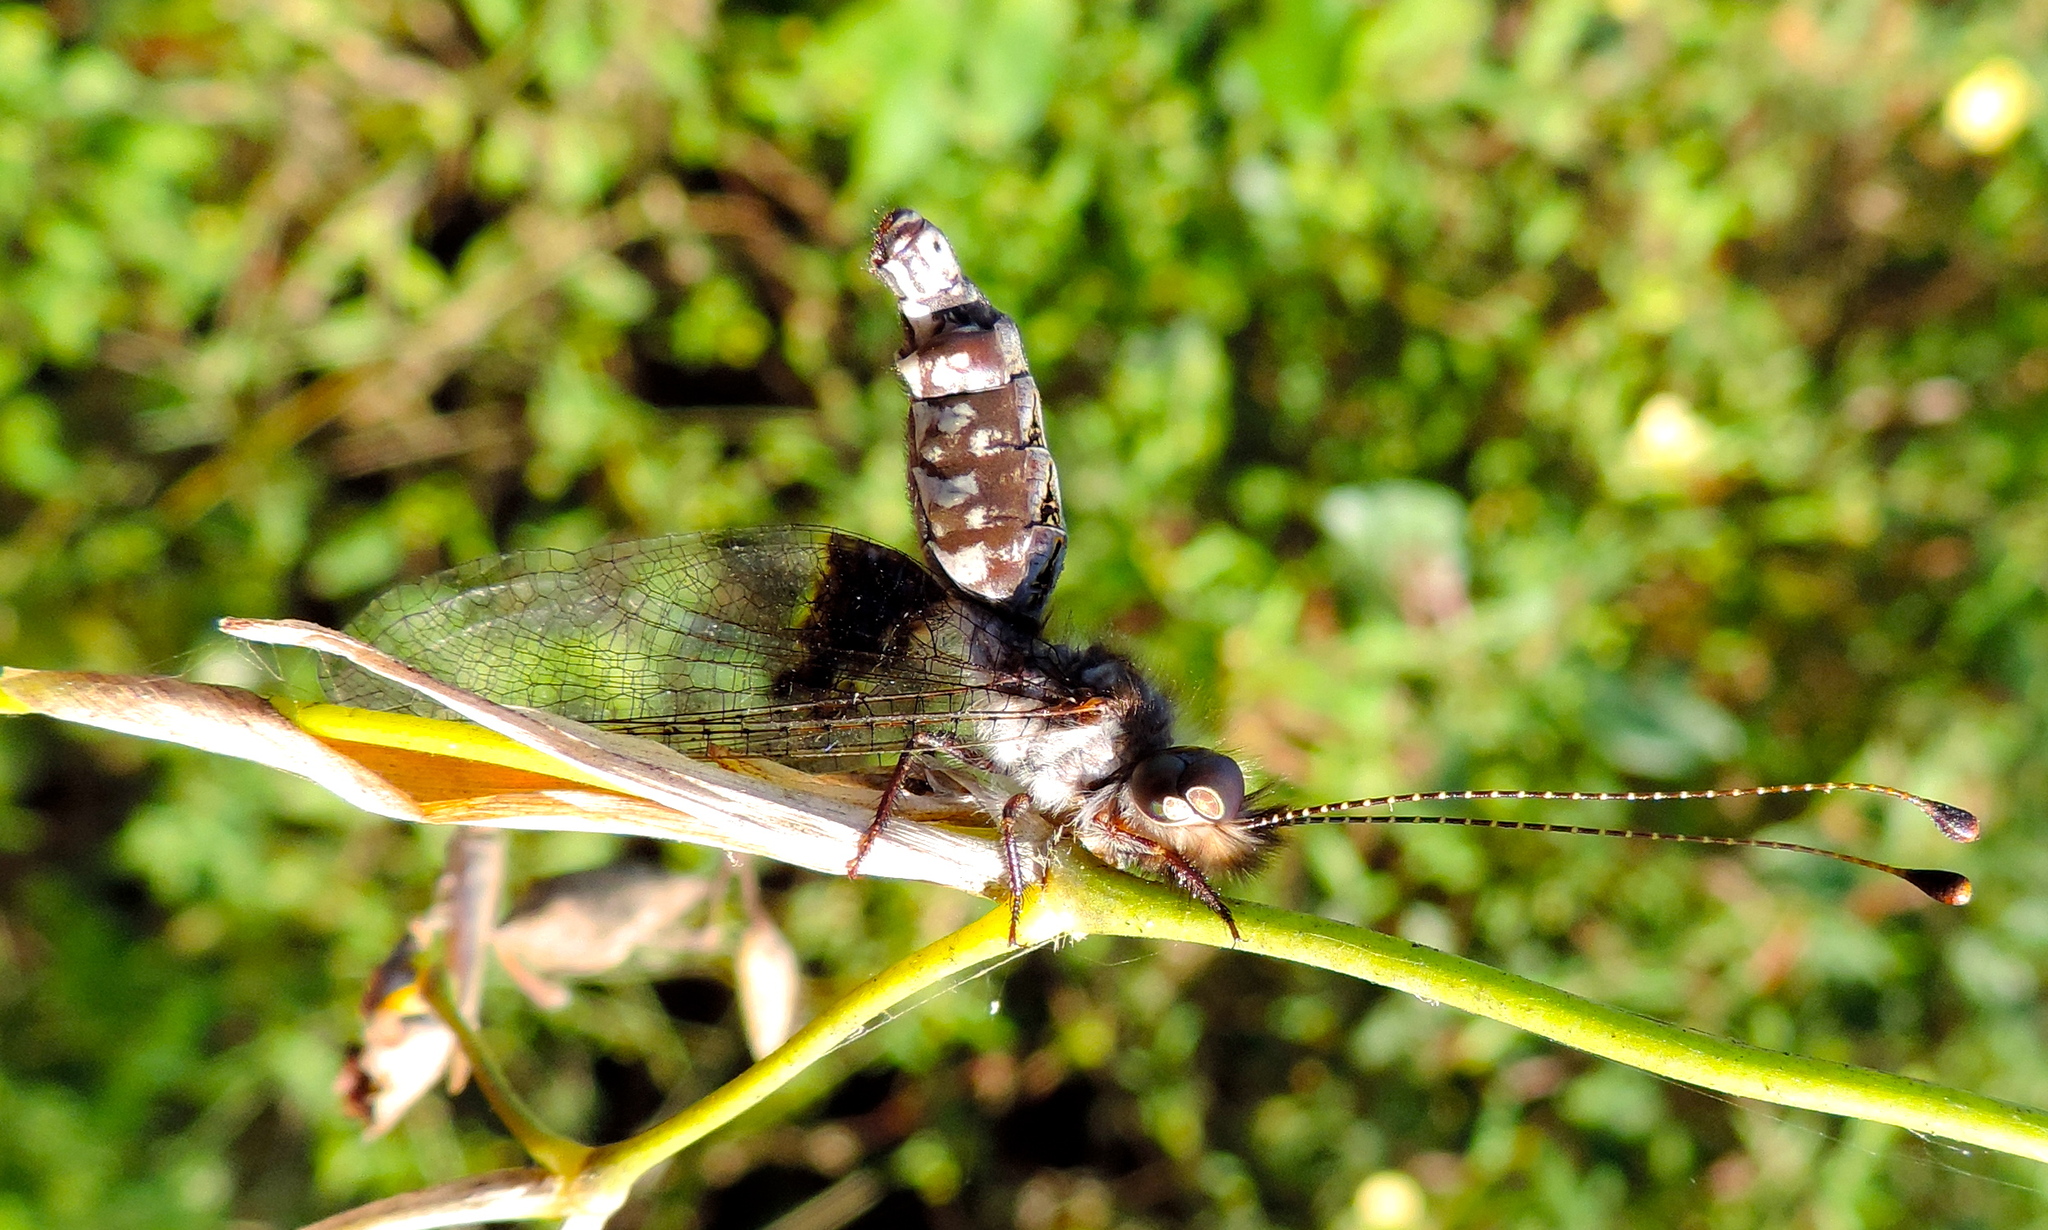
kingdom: Animalia
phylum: Arthropoda
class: Insecta
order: Neuroptera
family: Myrmeleontidae
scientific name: Myrmeleontidae
